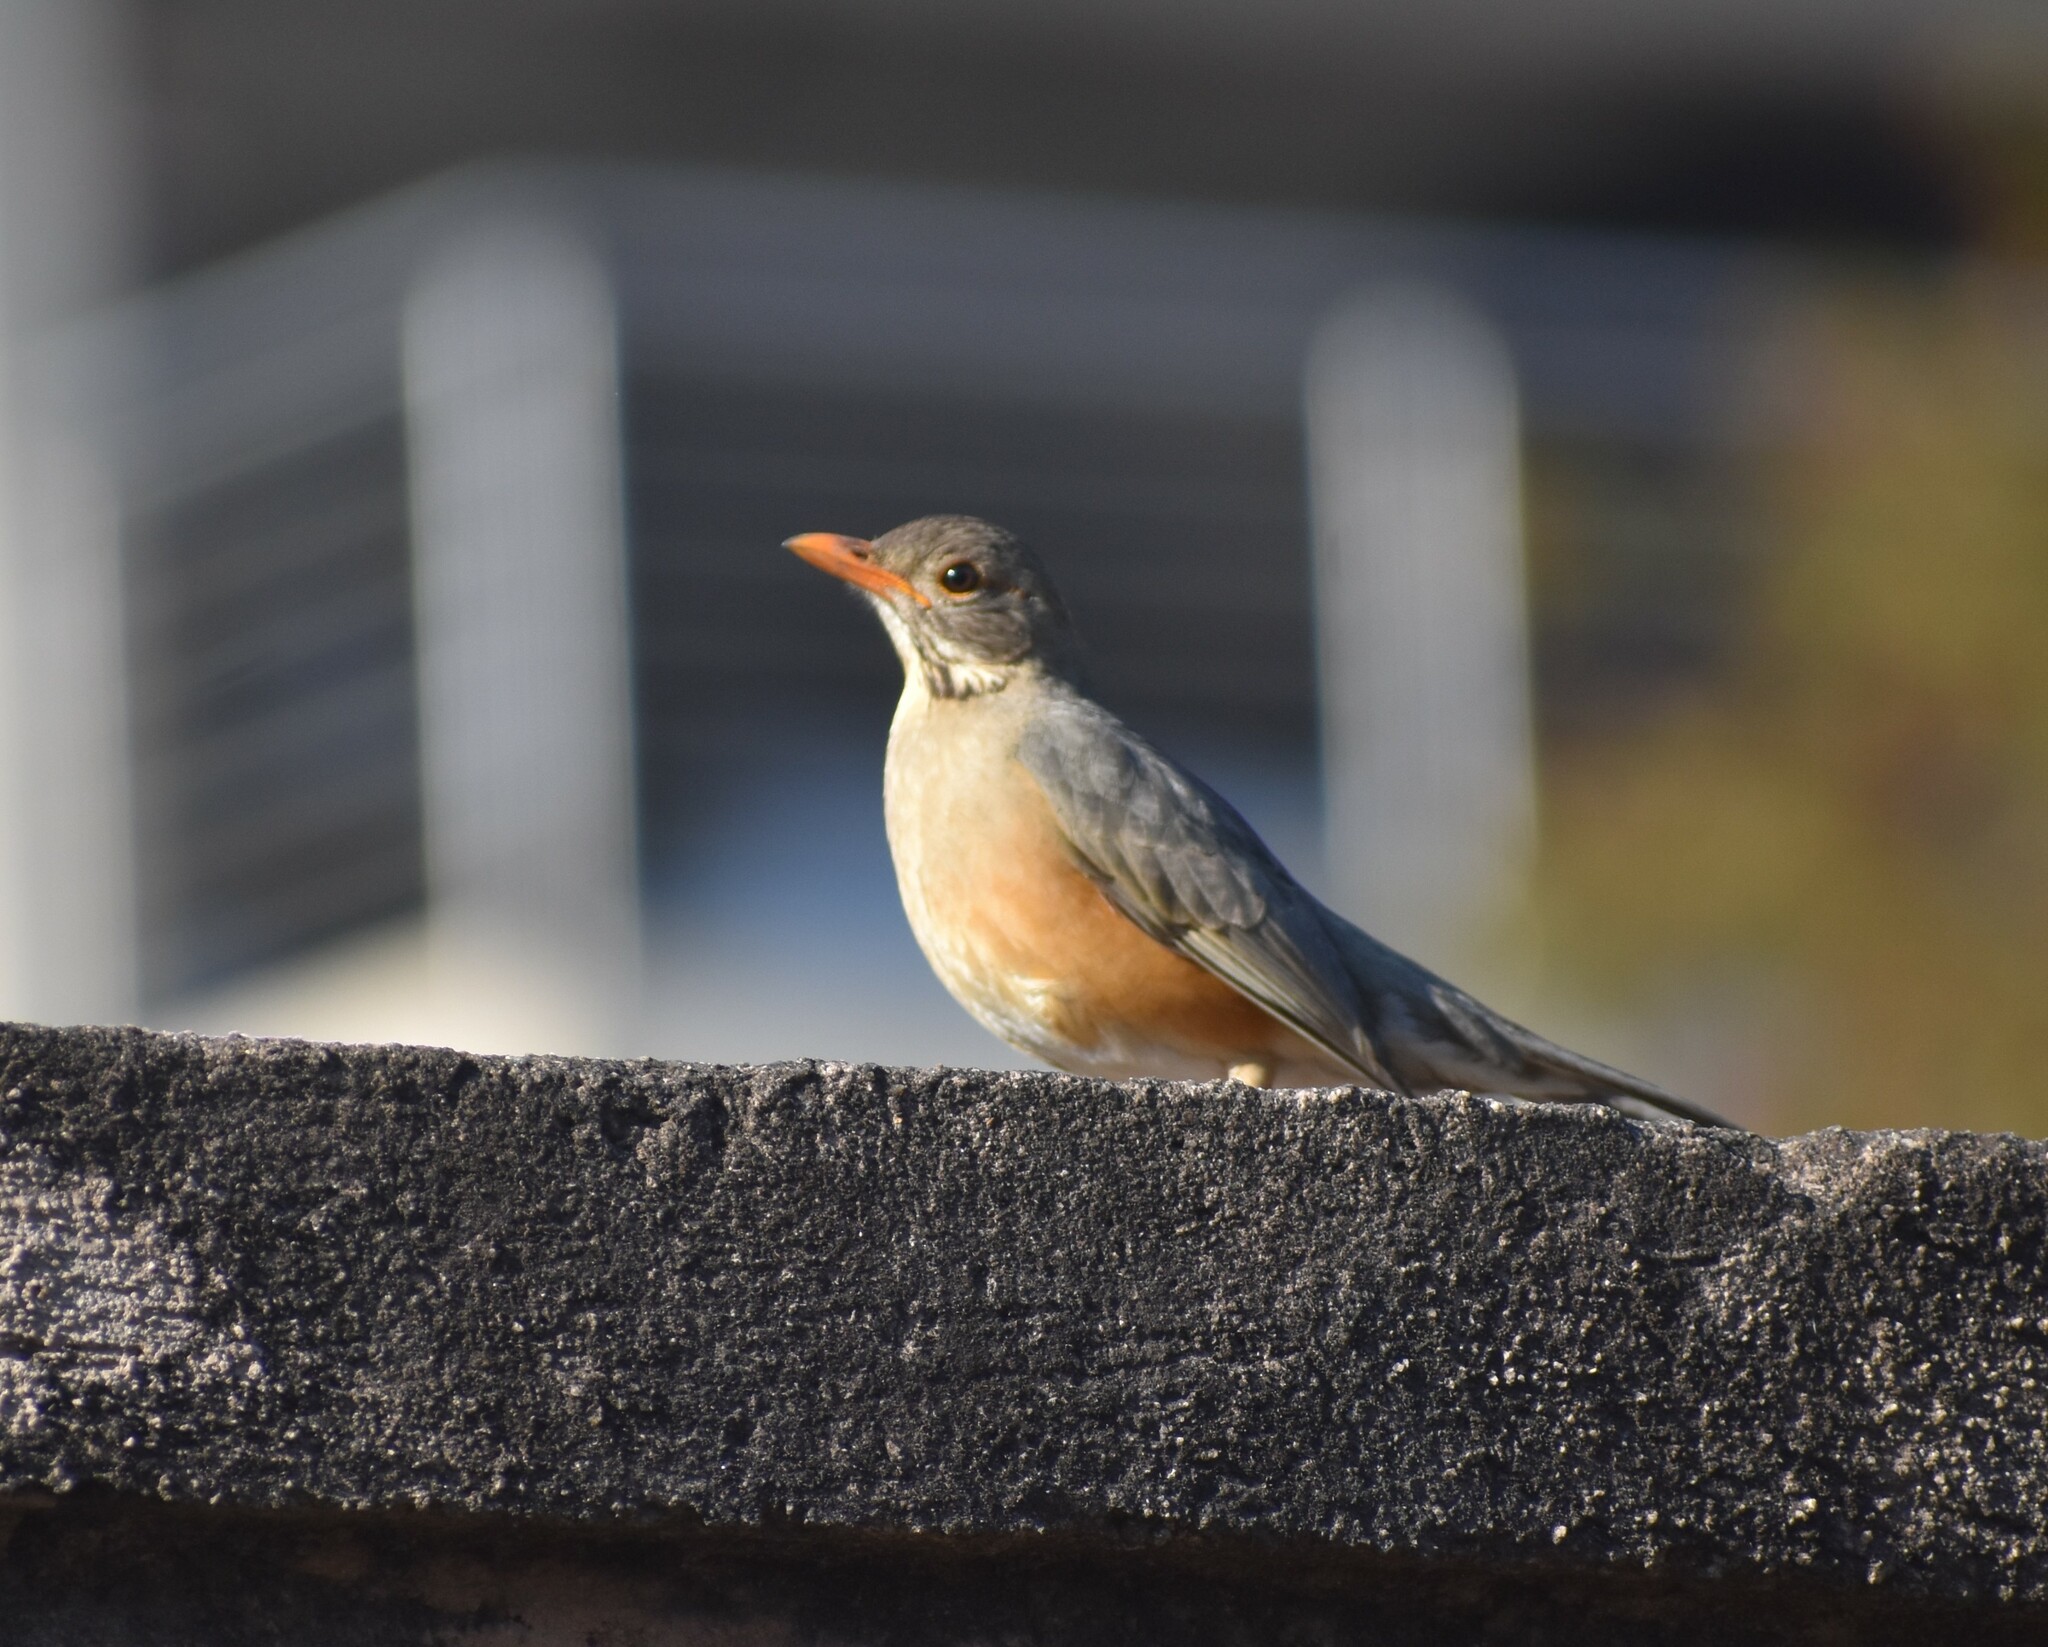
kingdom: Animalia
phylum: Chordata
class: Aves
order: Passeriformes
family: Turdidae
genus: Turdus
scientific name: Turdus libonyana
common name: Kurrichane thrush
